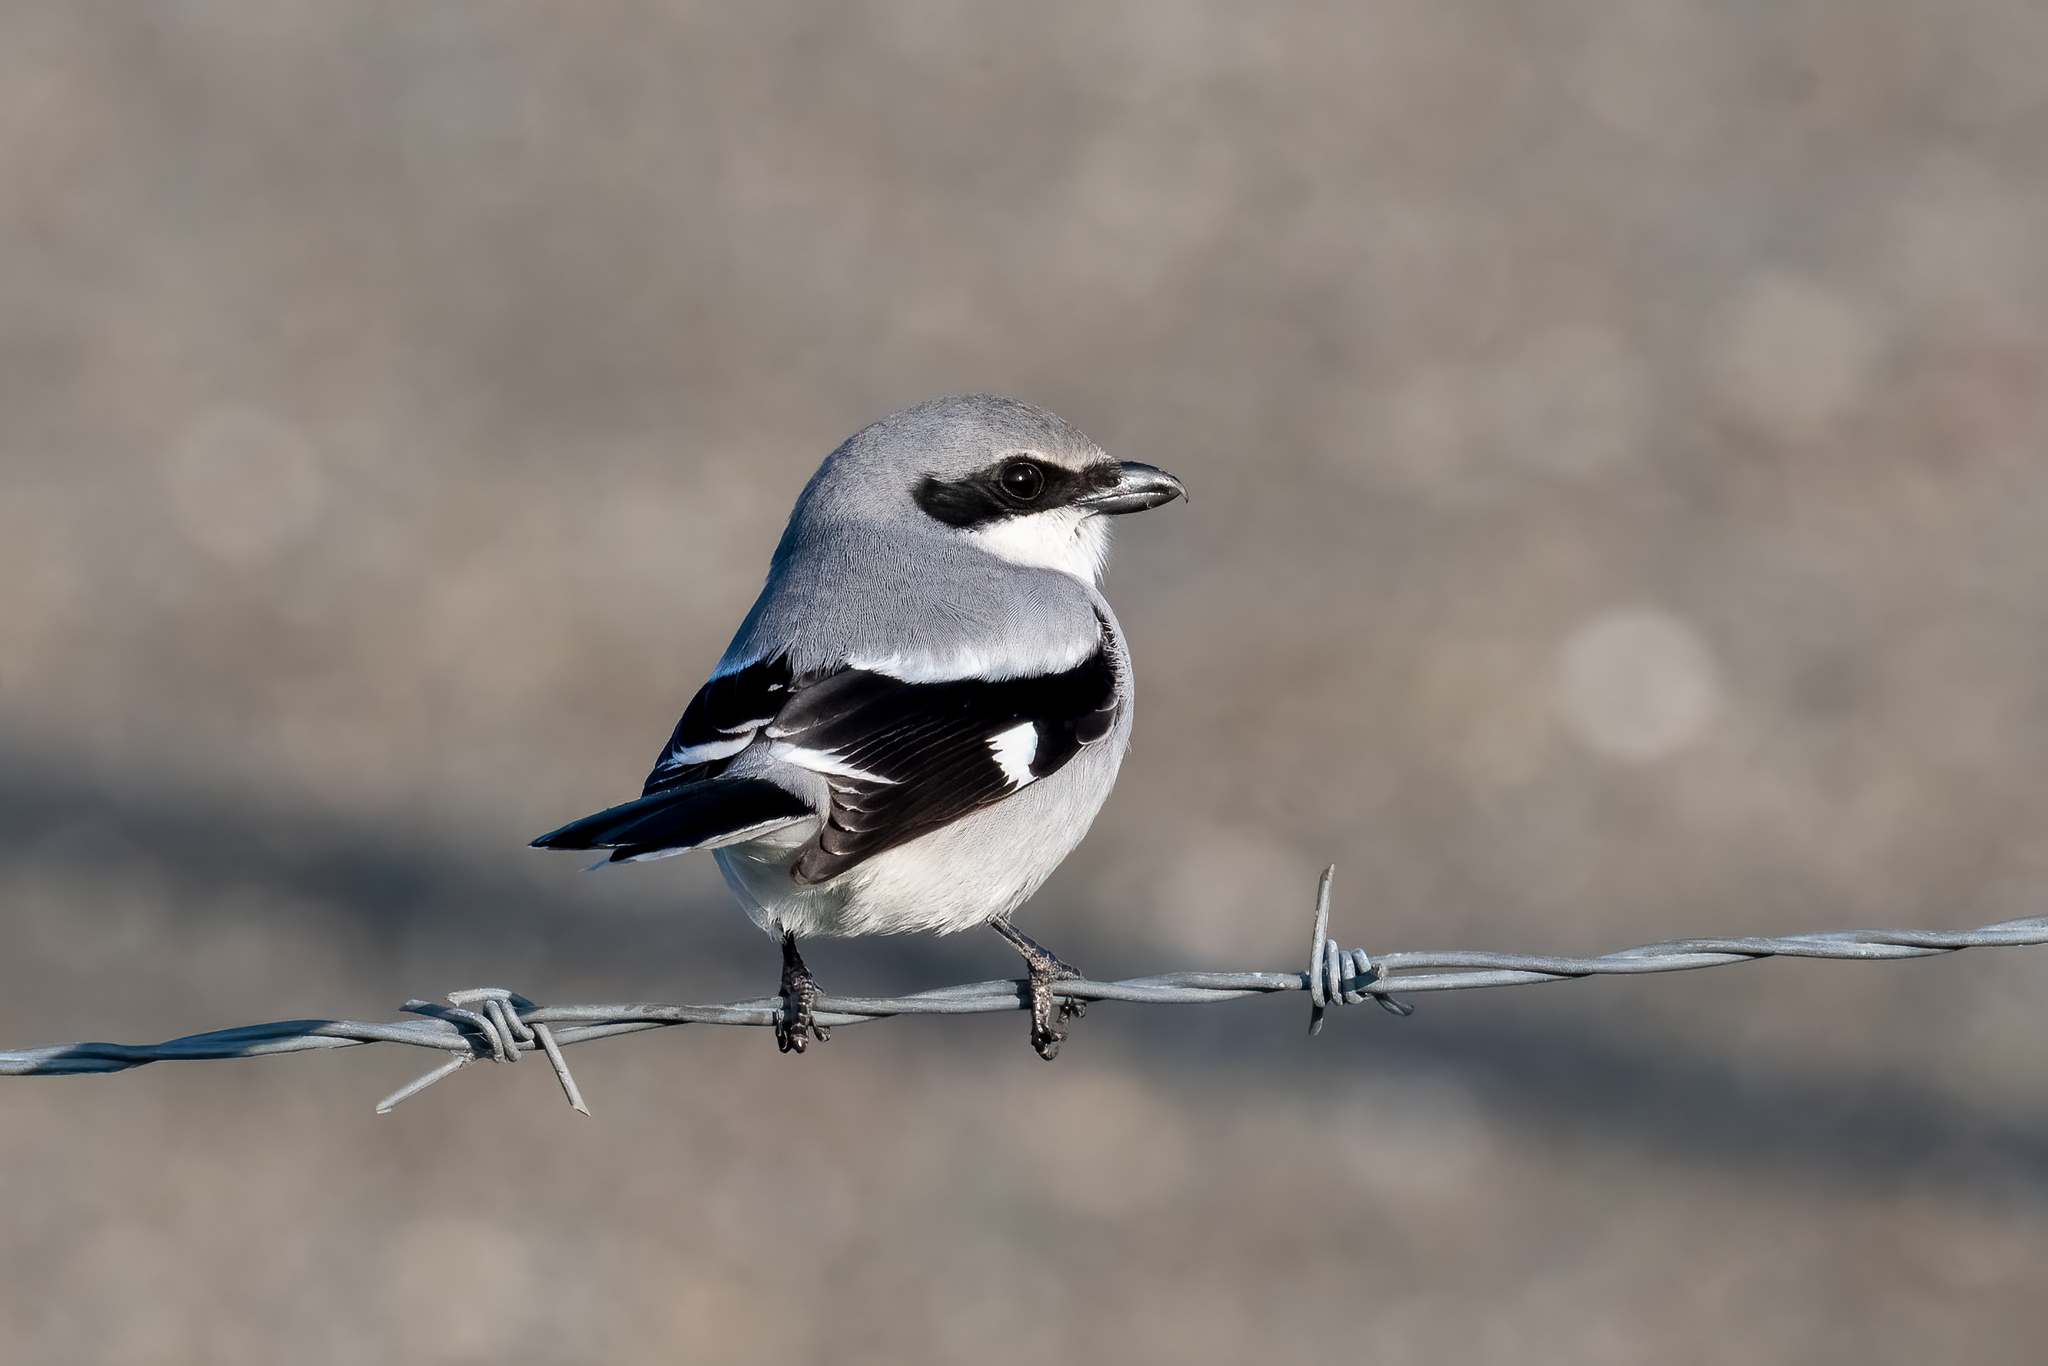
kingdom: Animalia
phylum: Chordata
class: Aves
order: Passeriformes
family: Laniidae
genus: Lanius
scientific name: Lanius ludovicianus
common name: Loggerhead shrike
